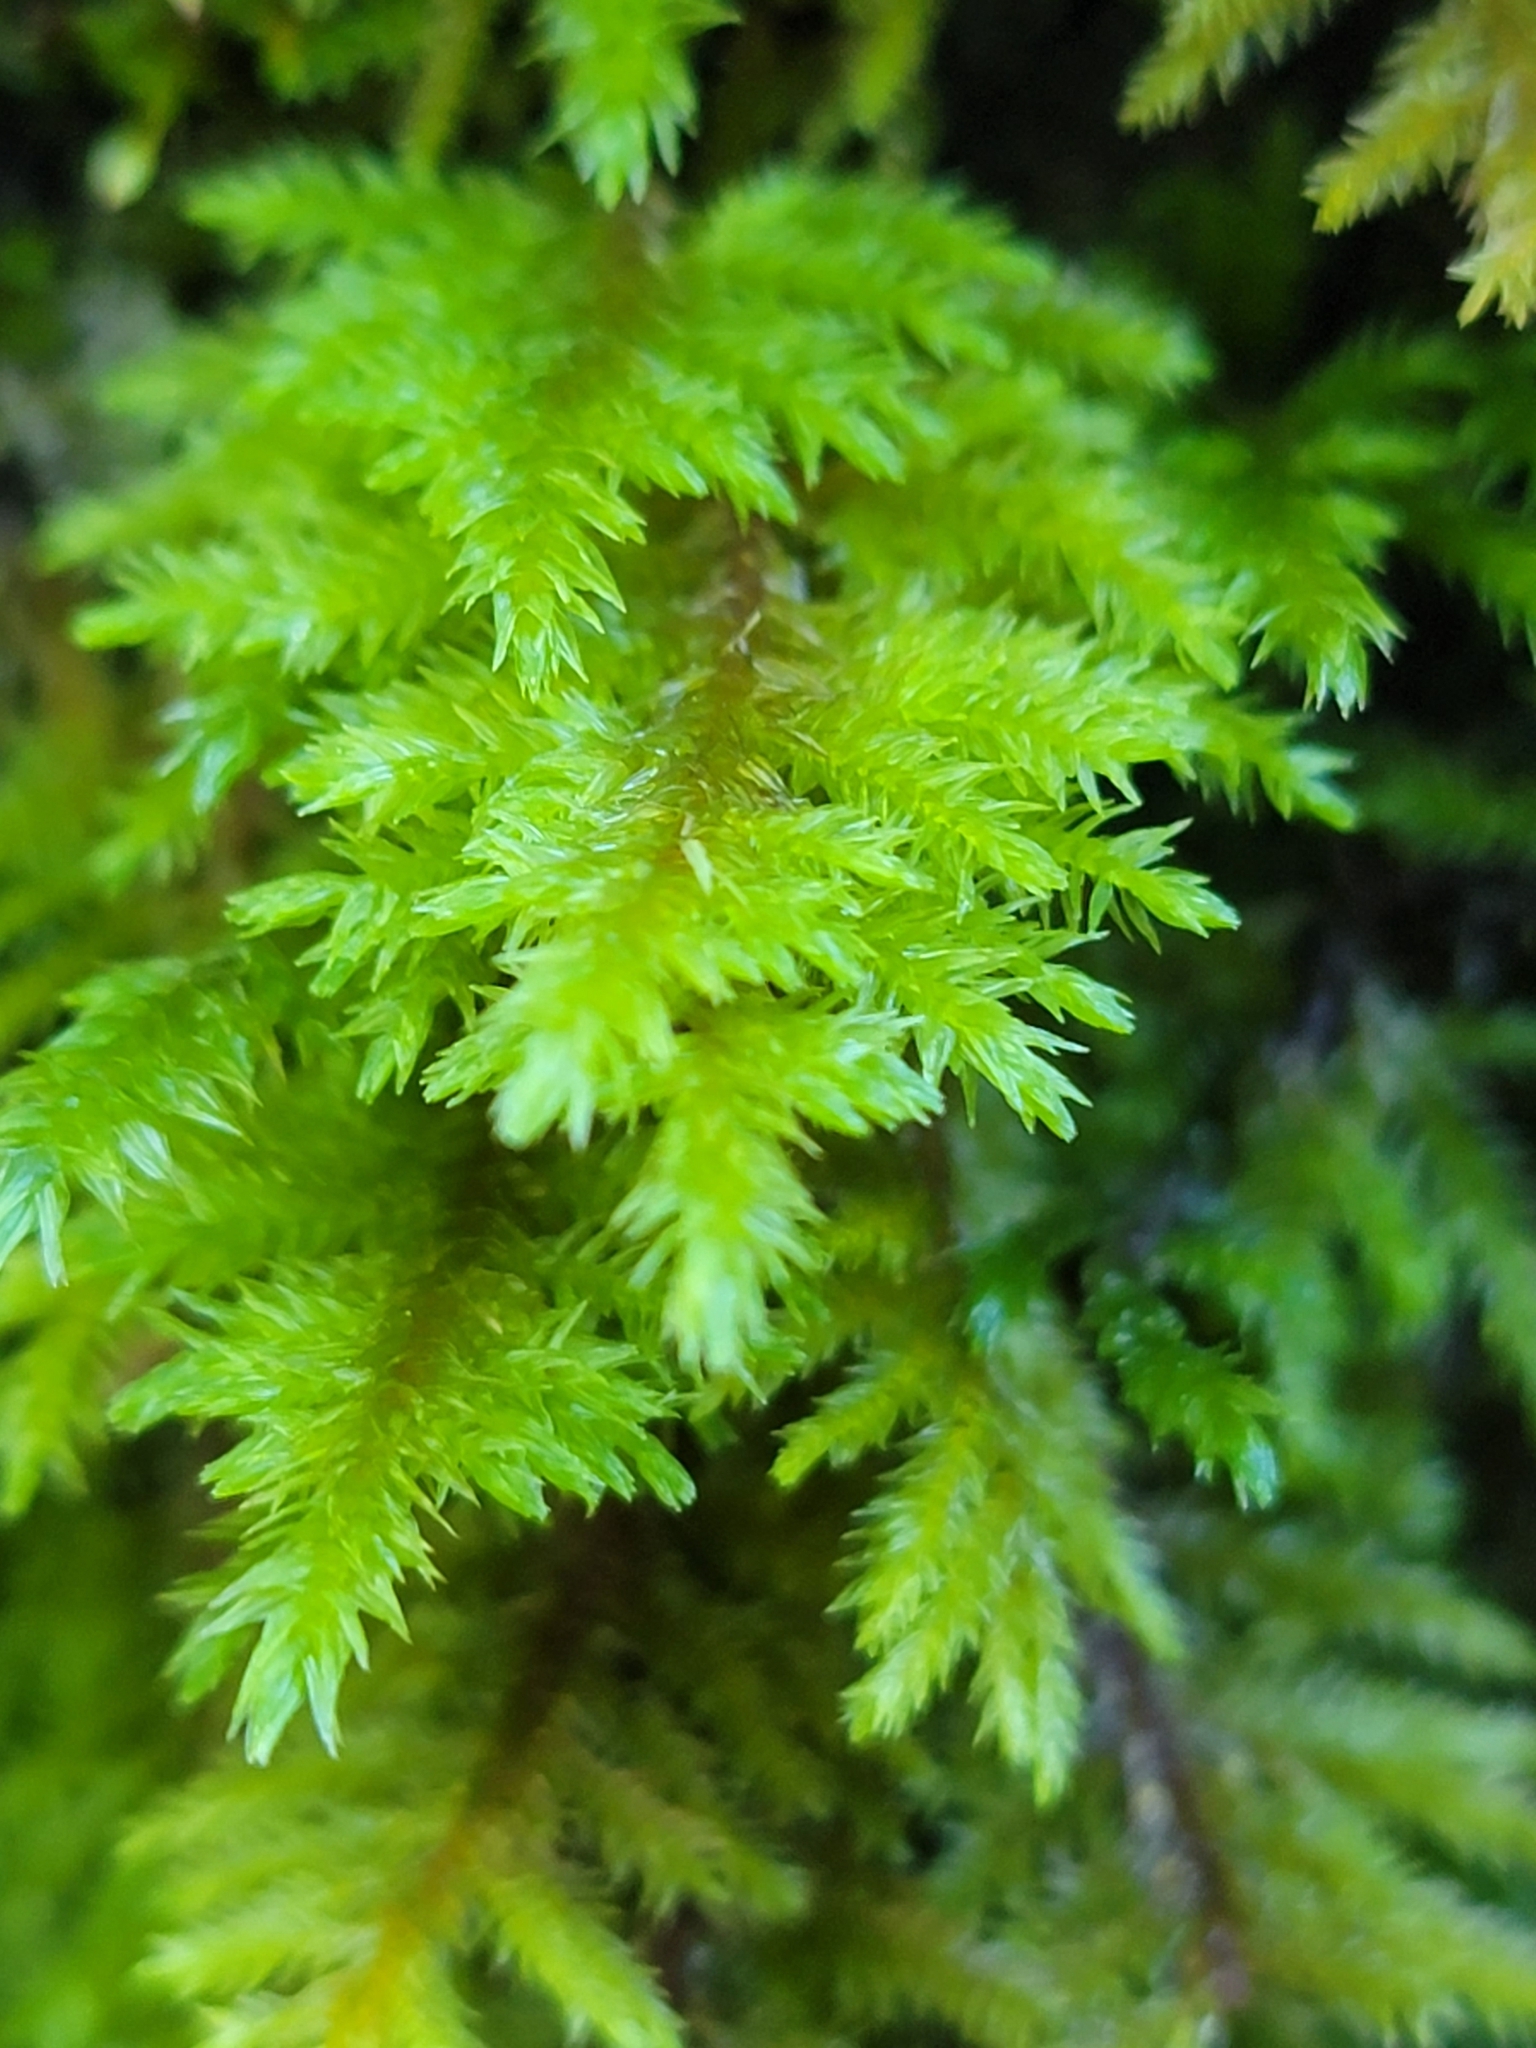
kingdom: Plantae
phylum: Bryophyta
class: Bryopsida
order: Hypnales
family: Cryphaeaceae
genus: Dendroalsia
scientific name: Dendroalsia abietina
